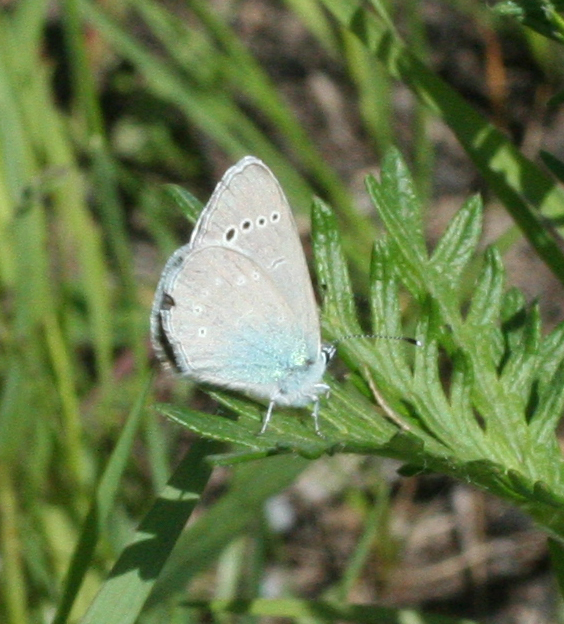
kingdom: Animalia
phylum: Arthropoda
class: Insecta
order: Lepidoptera
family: Lycaenidae
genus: Glaucopsyche
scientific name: Glaucopsyche alexis
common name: Green-underside blue
